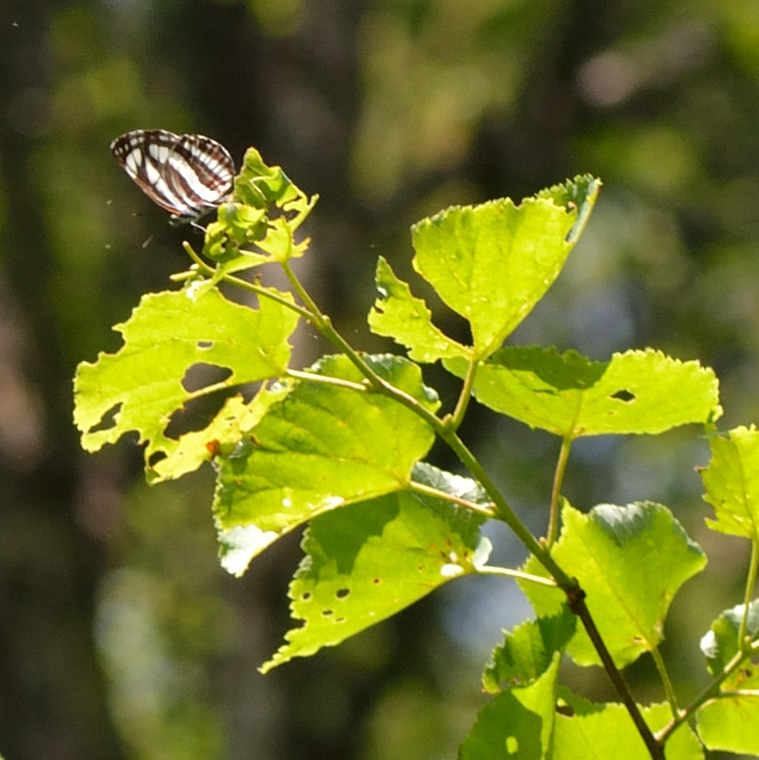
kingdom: Animalia
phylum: Arthropoda
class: Insecta
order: Lepidoptera
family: Nymphalidae
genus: Neptis
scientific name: Neptis sappho
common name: Common glider
